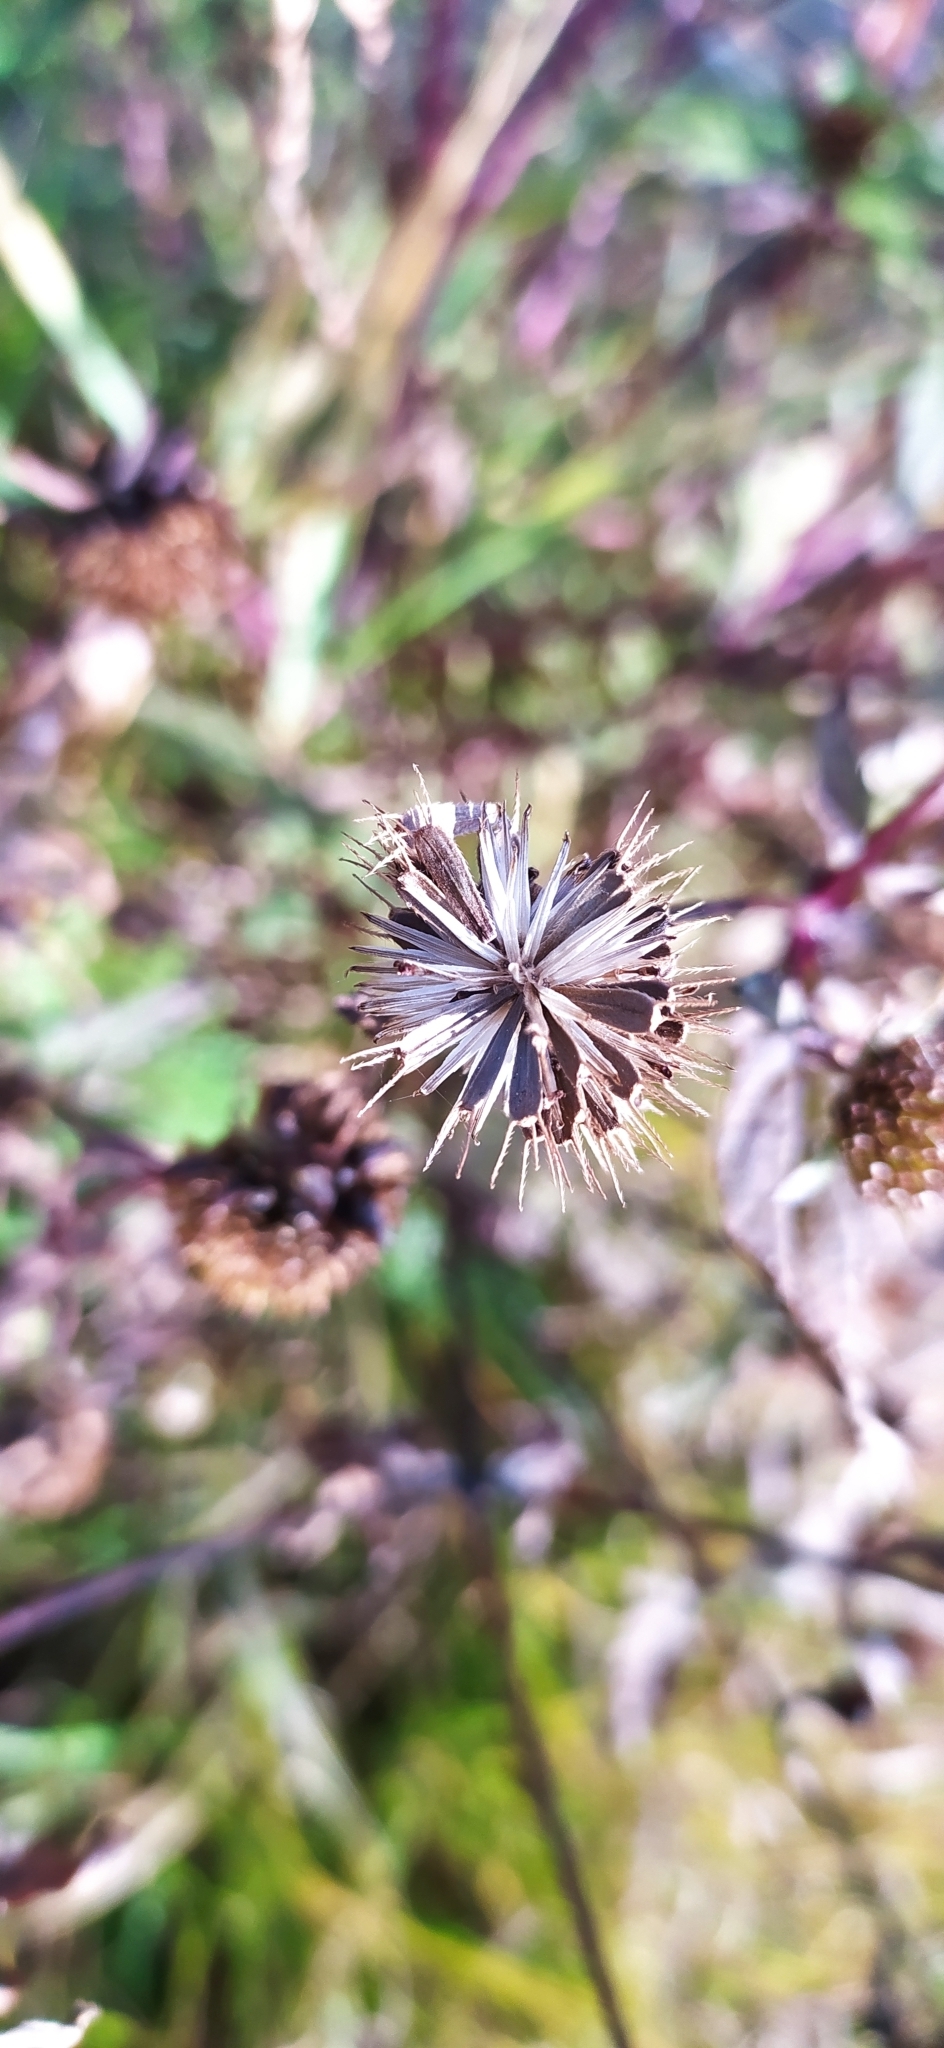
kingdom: Plantae
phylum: Tracheophyta
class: Magnoliopsida
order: Asterales
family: Asteraceae
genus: Bidens
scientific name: Bidens cernua
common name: Nodding bur-marigold
